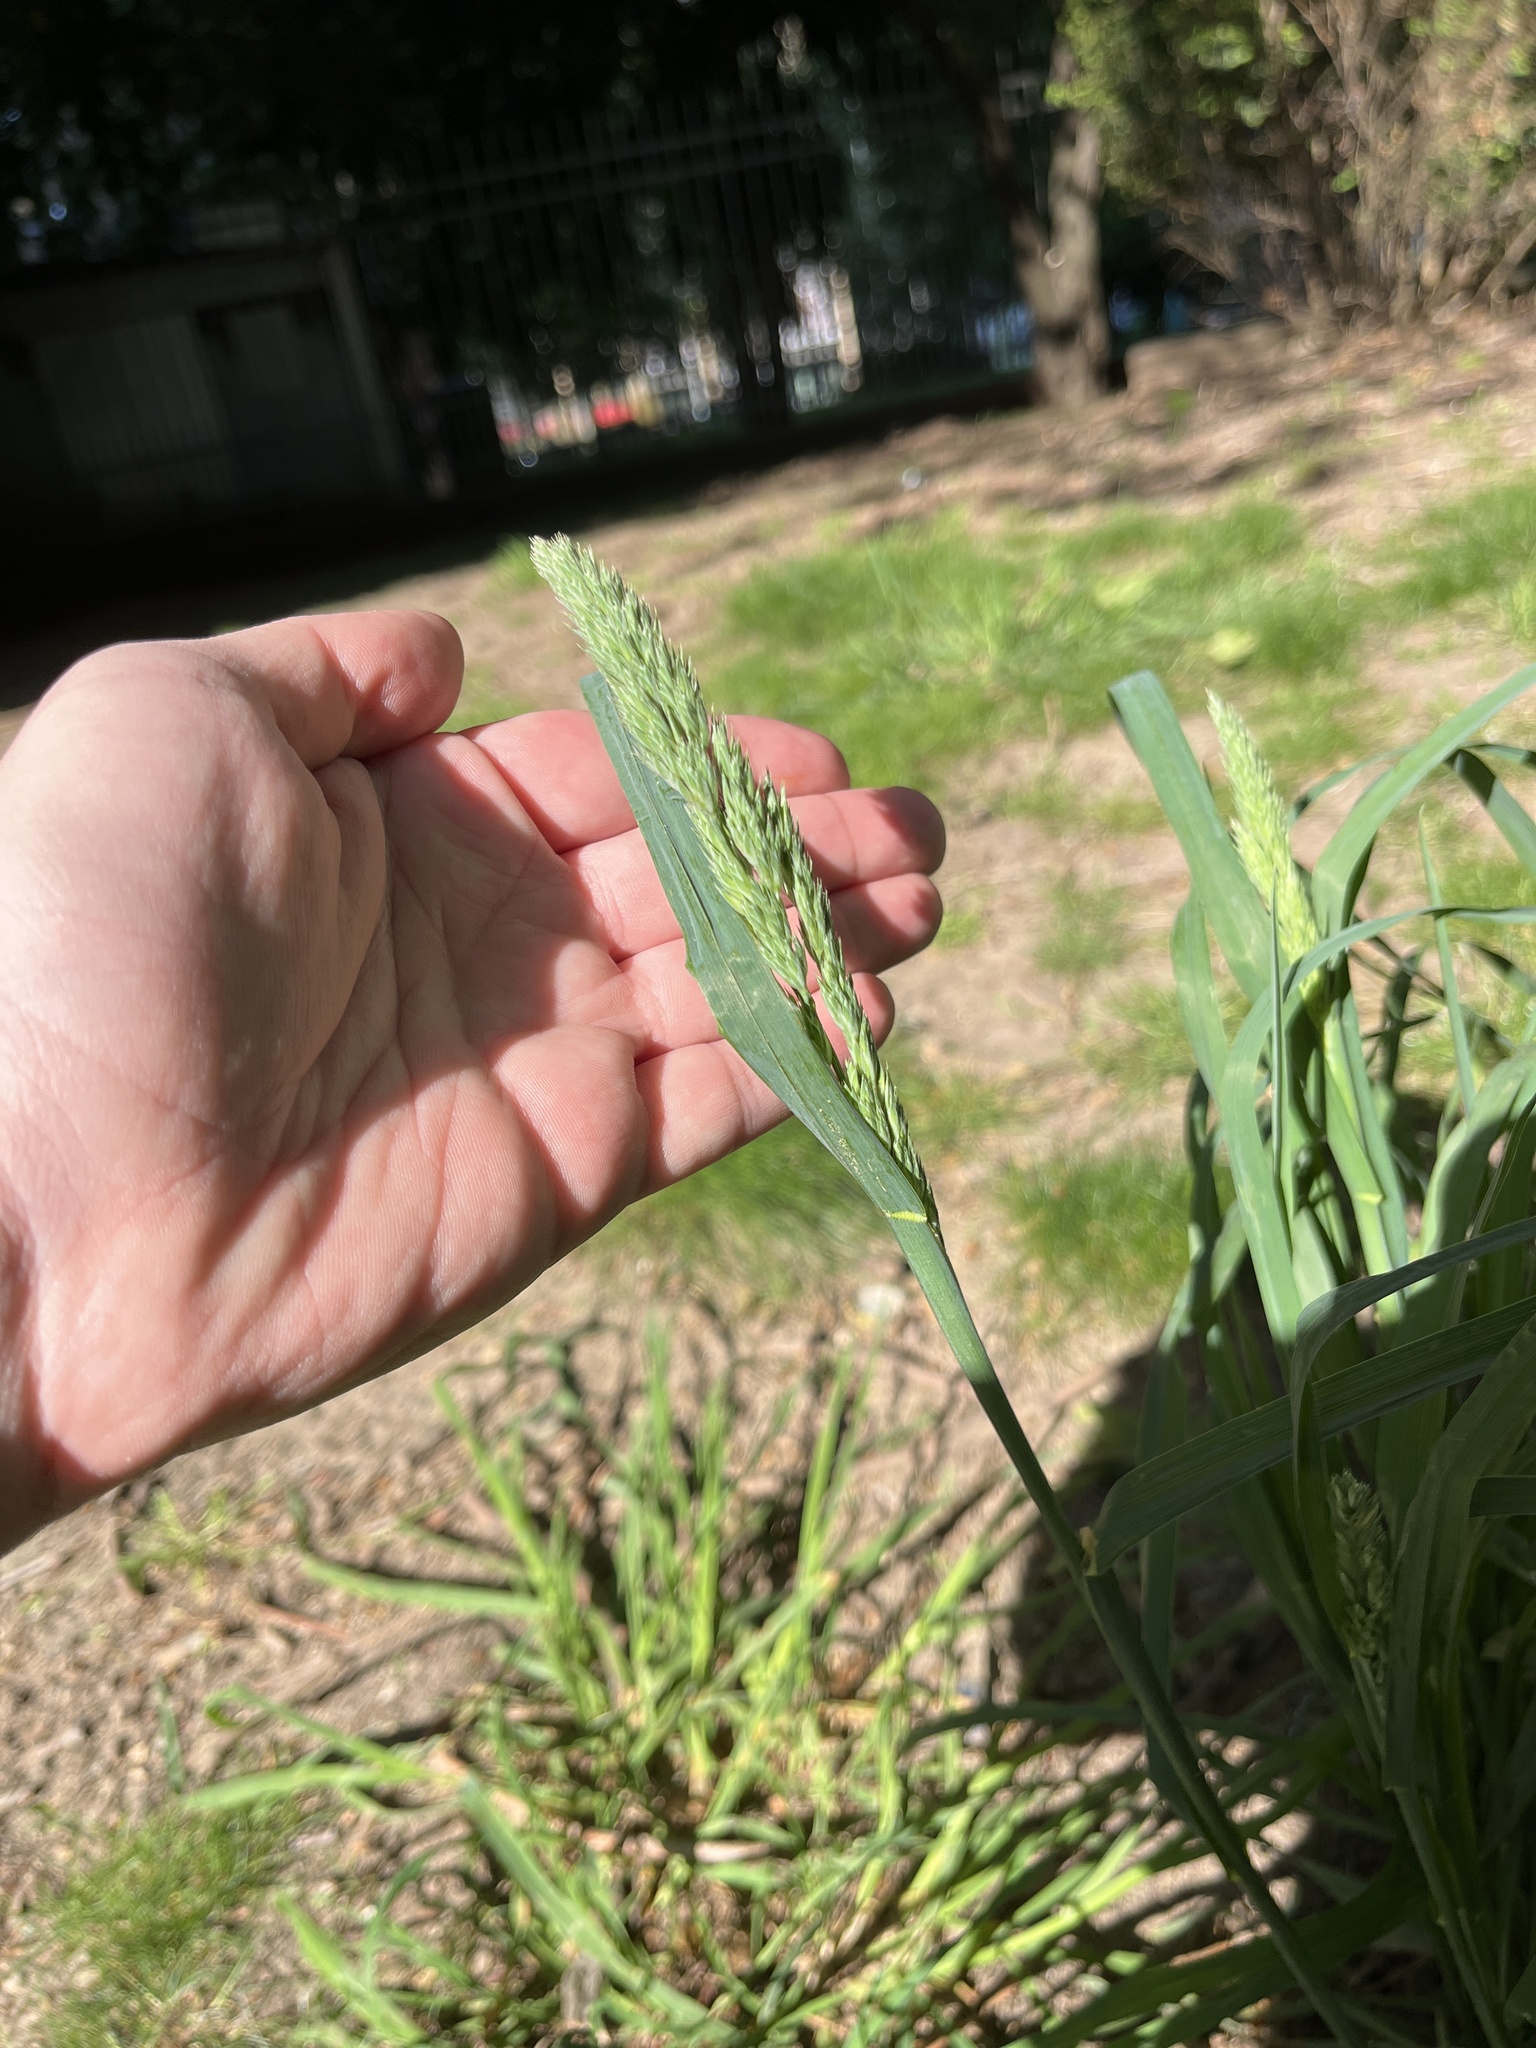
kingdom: Plantae
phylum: Tracheophyta
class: Liliopsida
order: Poales
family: Poaceae
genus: Dactylis
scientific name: Dactylis glomerata
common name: Orchardgrass
